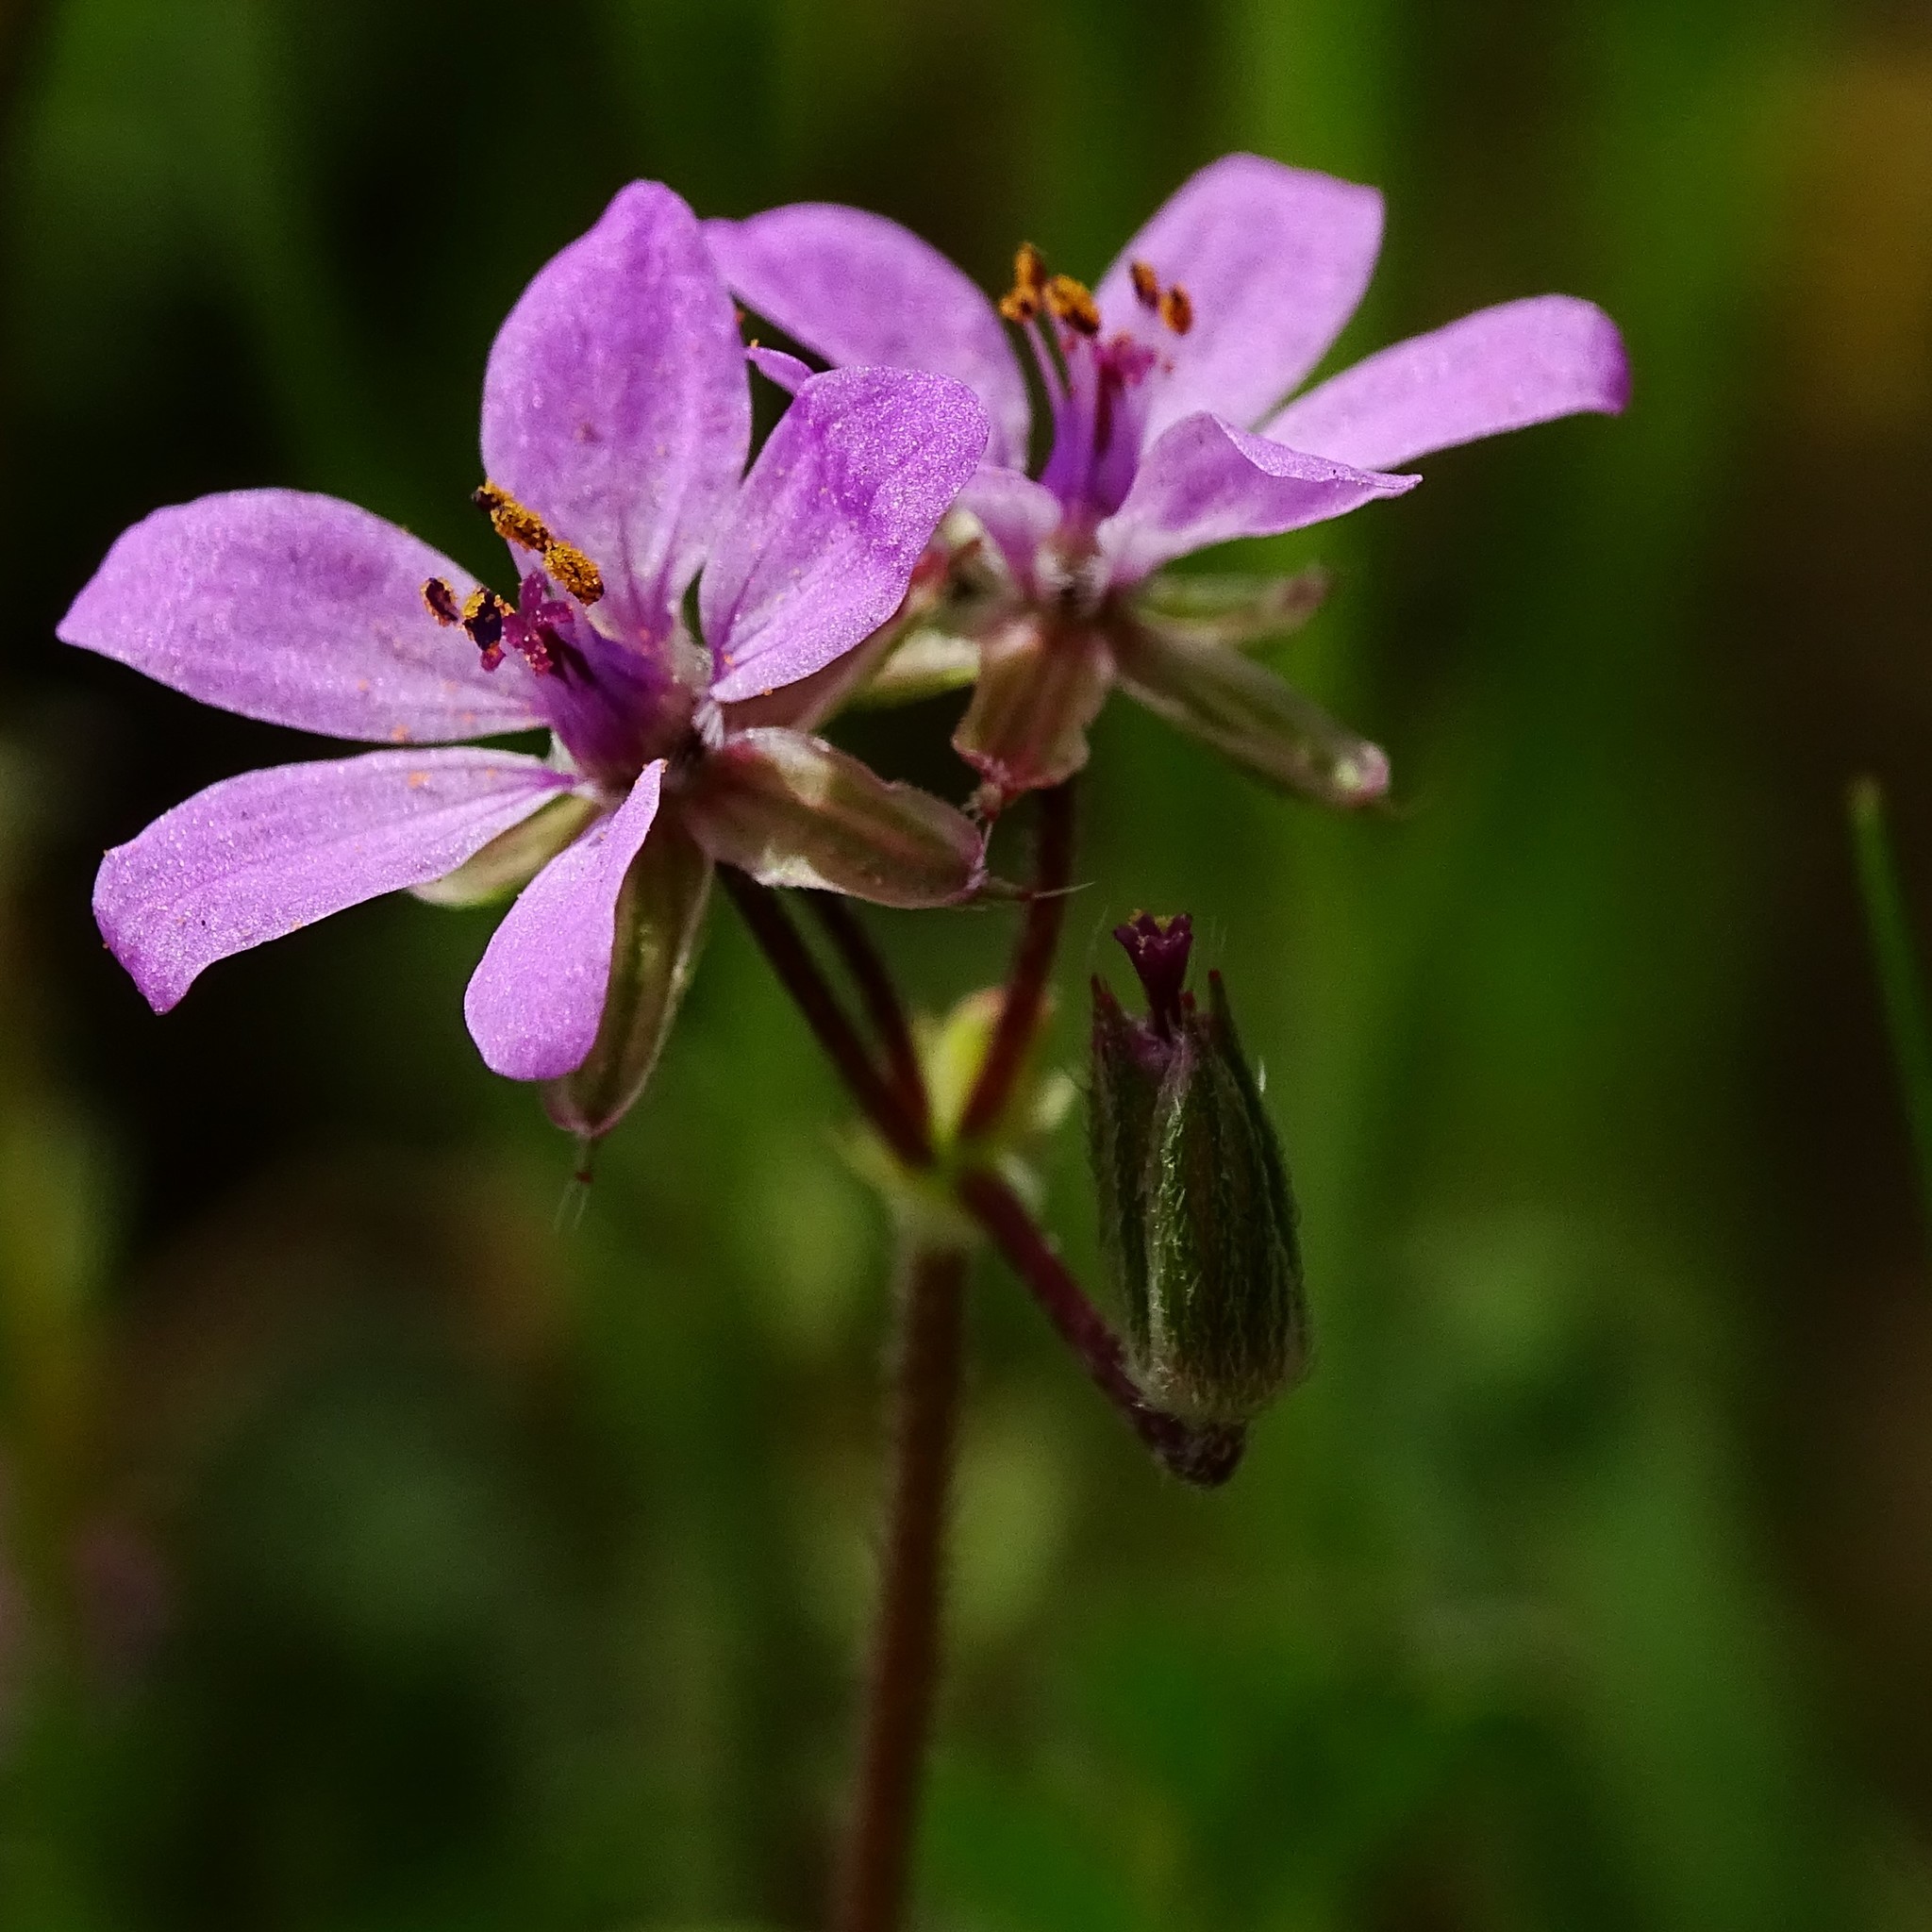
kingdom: Plantae
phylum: Tracheophyta
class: Magnoliopsida
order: Geraniales
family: Geraniaceae
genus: Erodium
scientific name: Erodium cicutarium
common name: Common stork's-bill
